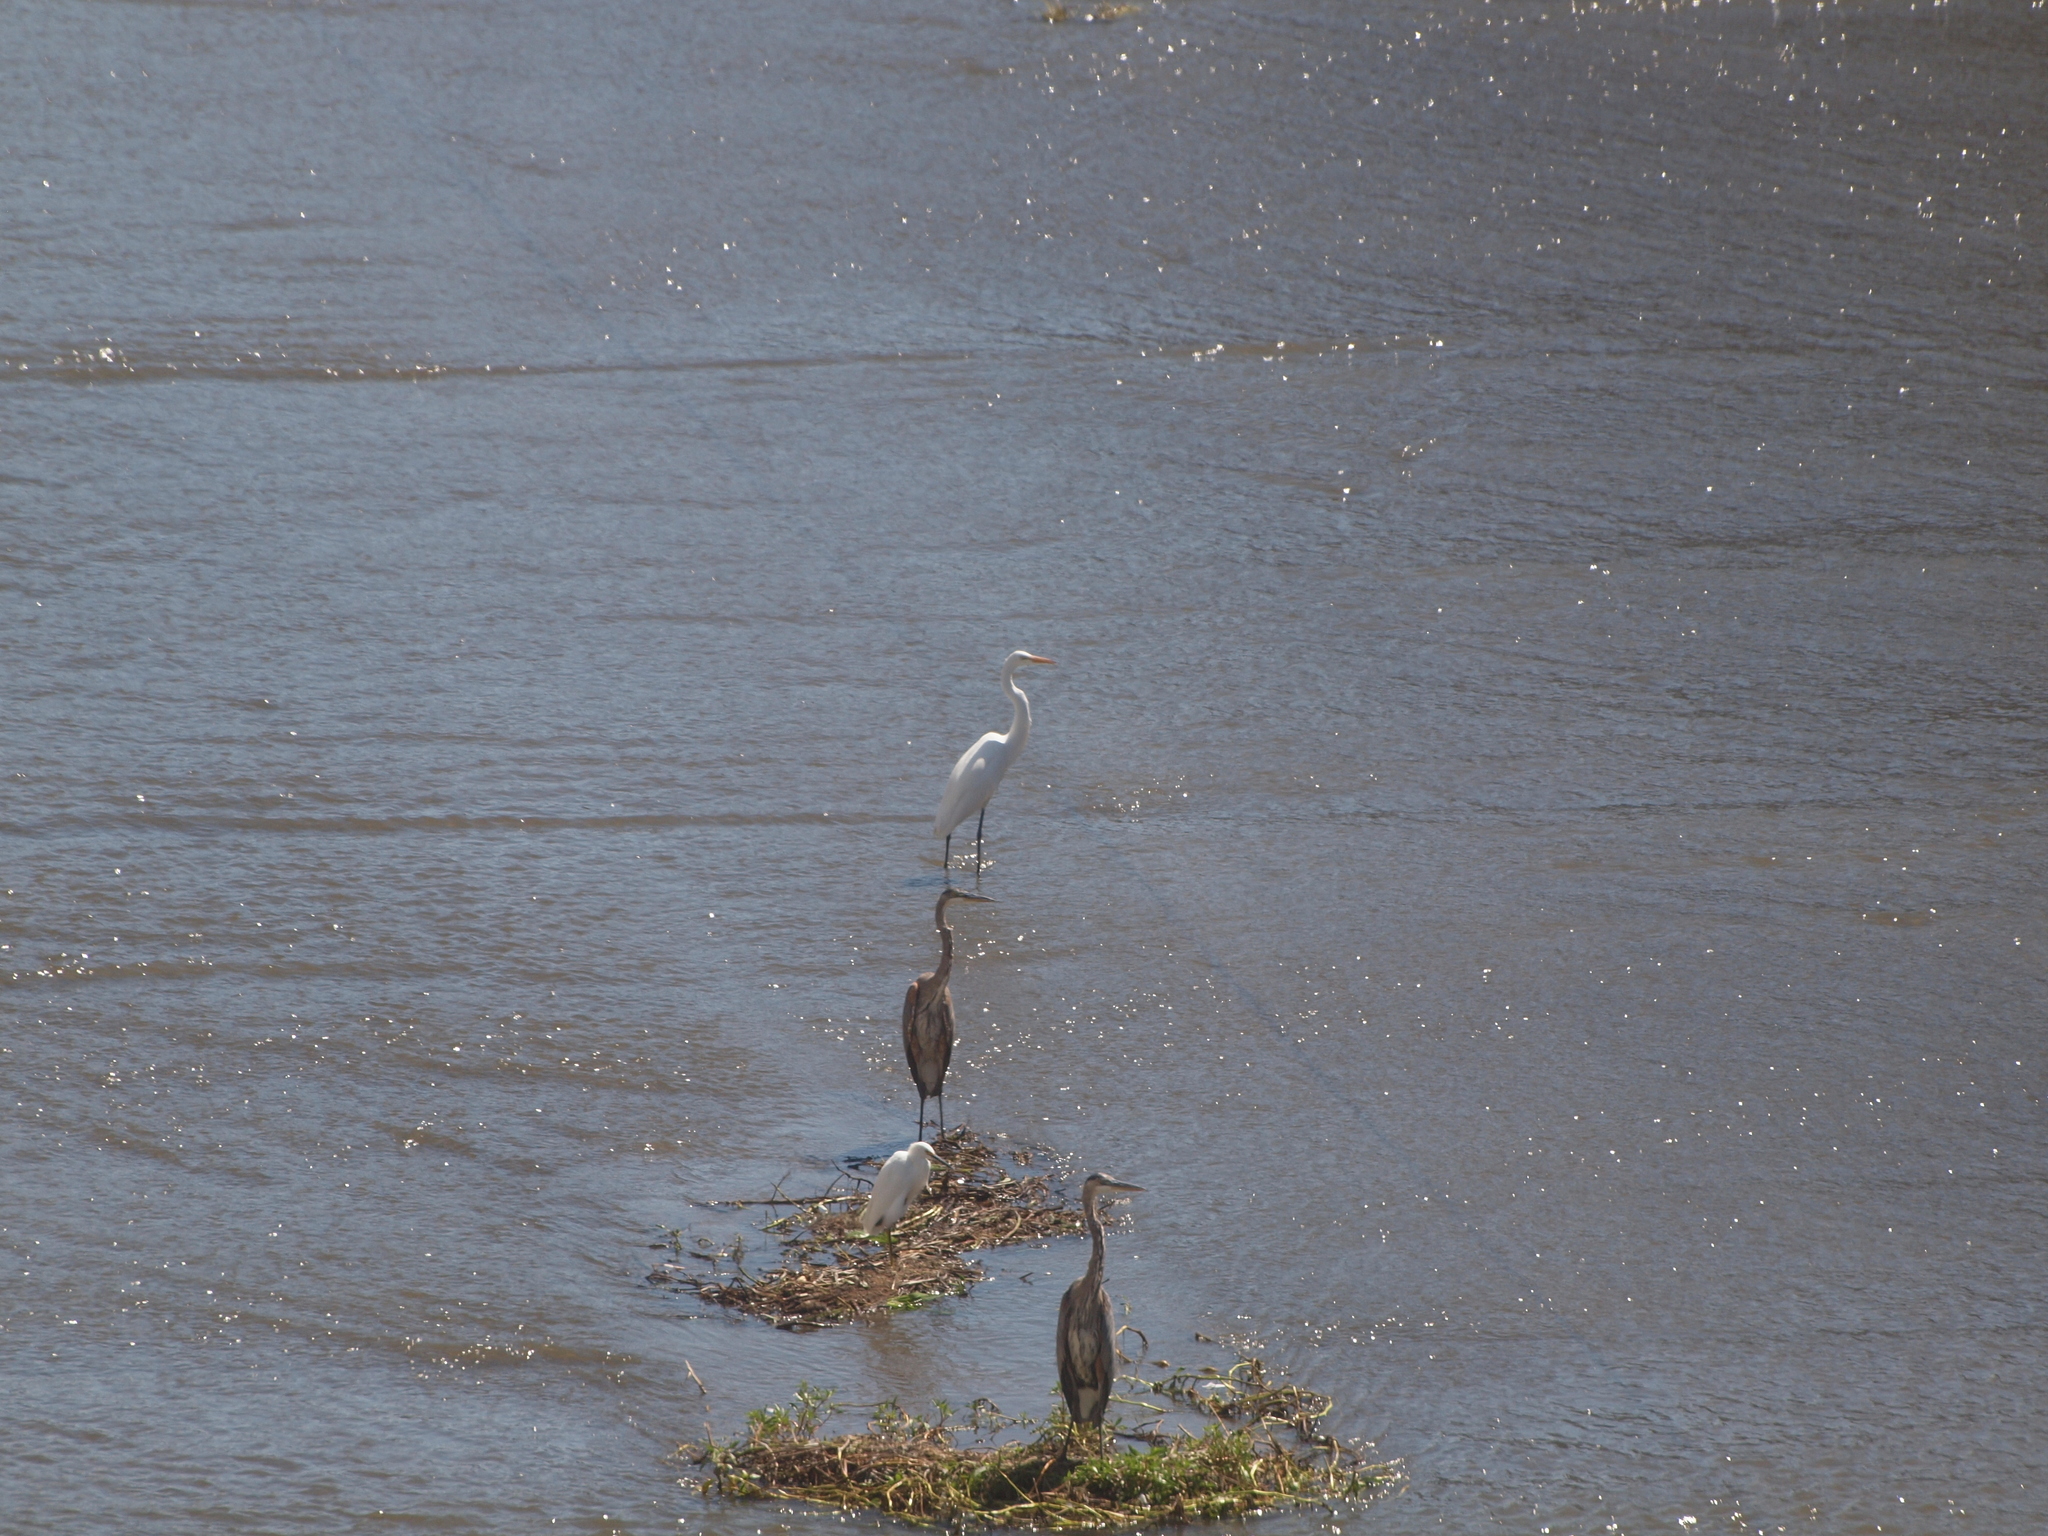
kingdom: Animalia
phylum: Chordata
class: Aves
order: Pelecaniformes
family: Ardeidae
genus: Ardea
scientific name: Ardea alba
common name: Great egret
